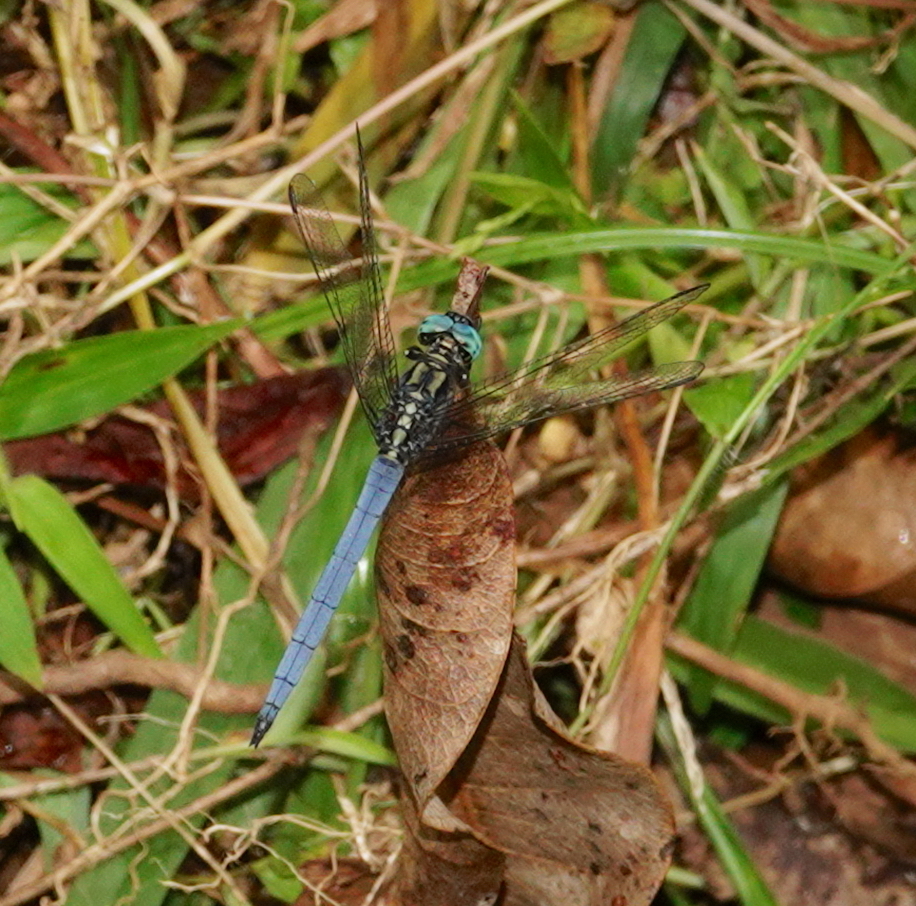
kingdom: Animalia
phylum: Arthropoda
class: Insecta
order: Odonata
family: Libellulidae
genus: Orthetrum
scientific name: Orthetrum luzonicum
